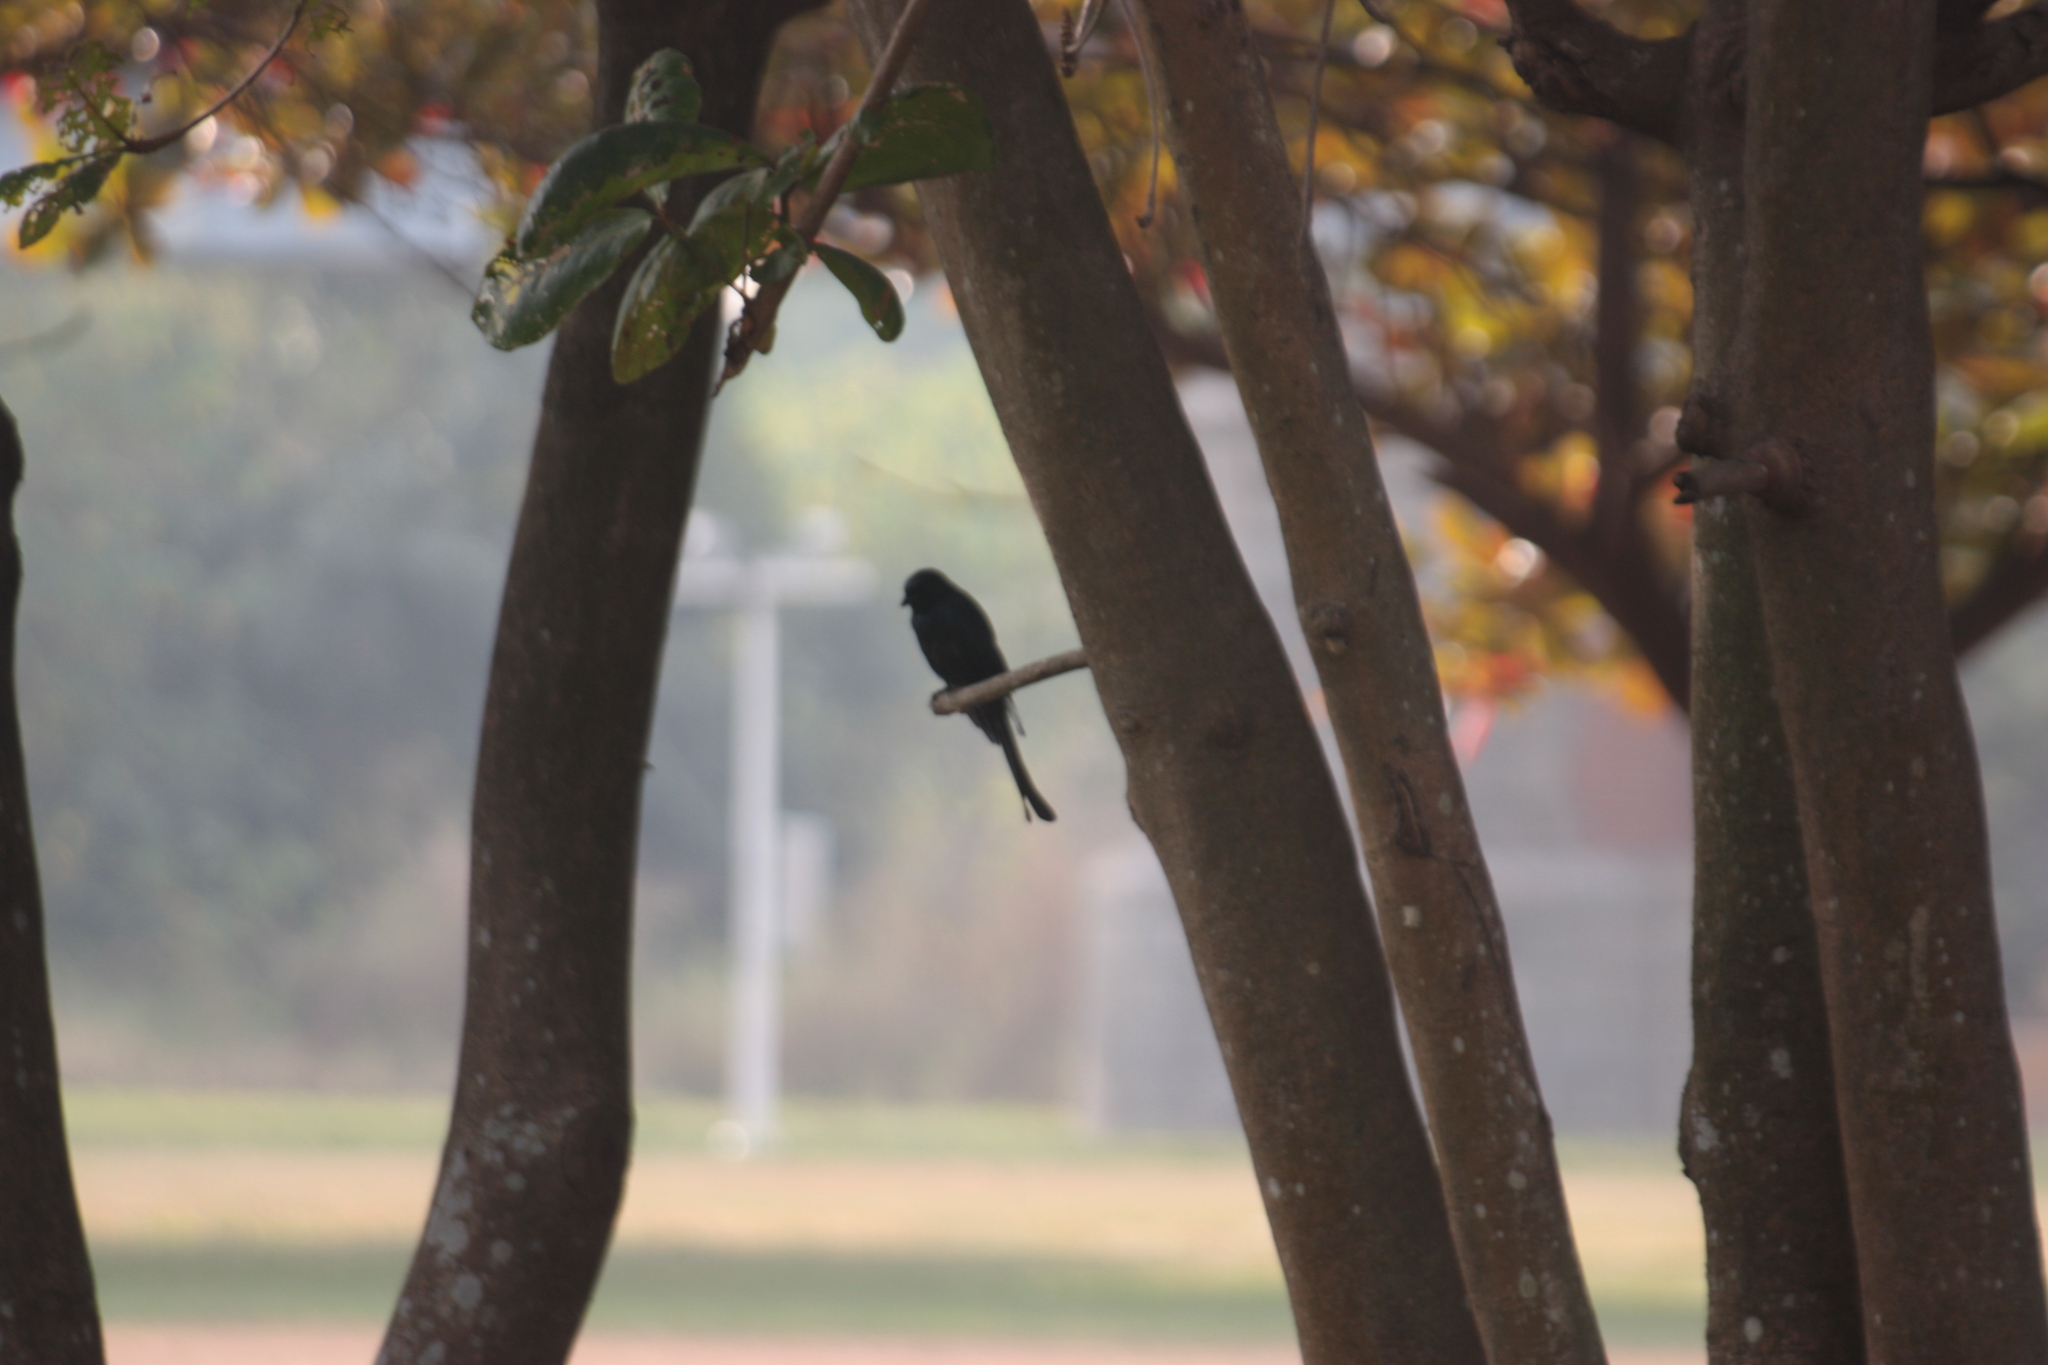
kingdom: Animalia
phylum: Chordata
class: Aves
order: Passeriformes
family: Dicruridae
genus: Dicrurus
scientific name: Dicrurus macrocercus
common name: Black drongo
